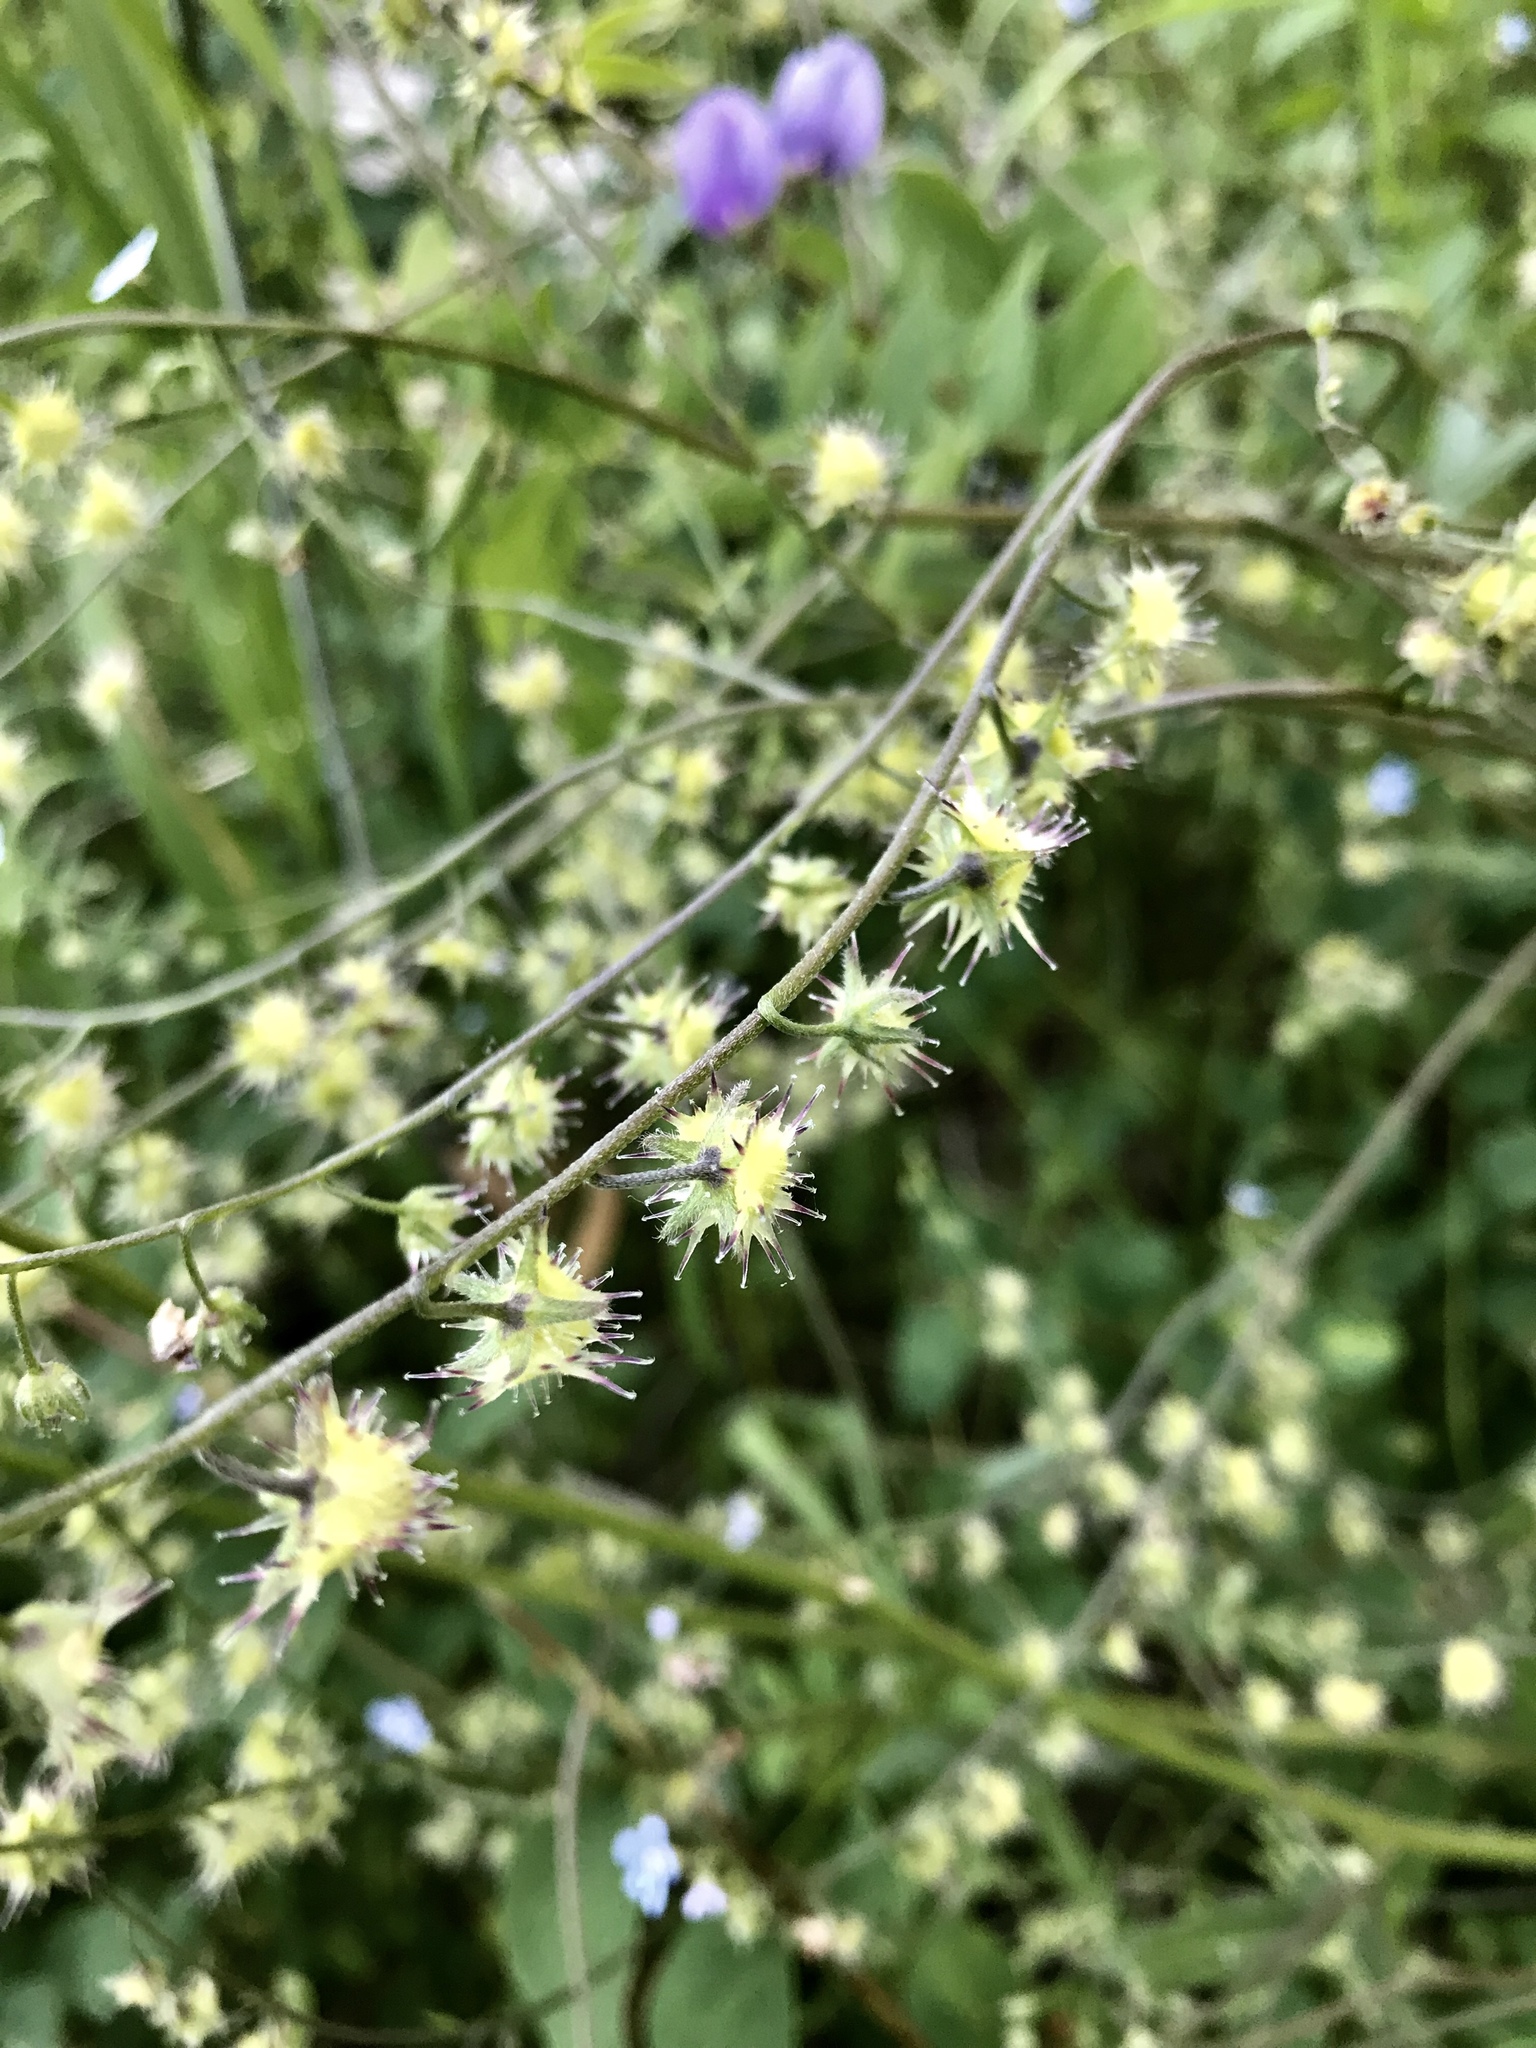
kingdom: Plantae
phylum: Tracheophyta
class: Magnoliopsida
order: Boraginales
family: Boraginaceae
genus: Hackelia
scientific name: Hackelia micrantha
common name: Meadow stickseed
